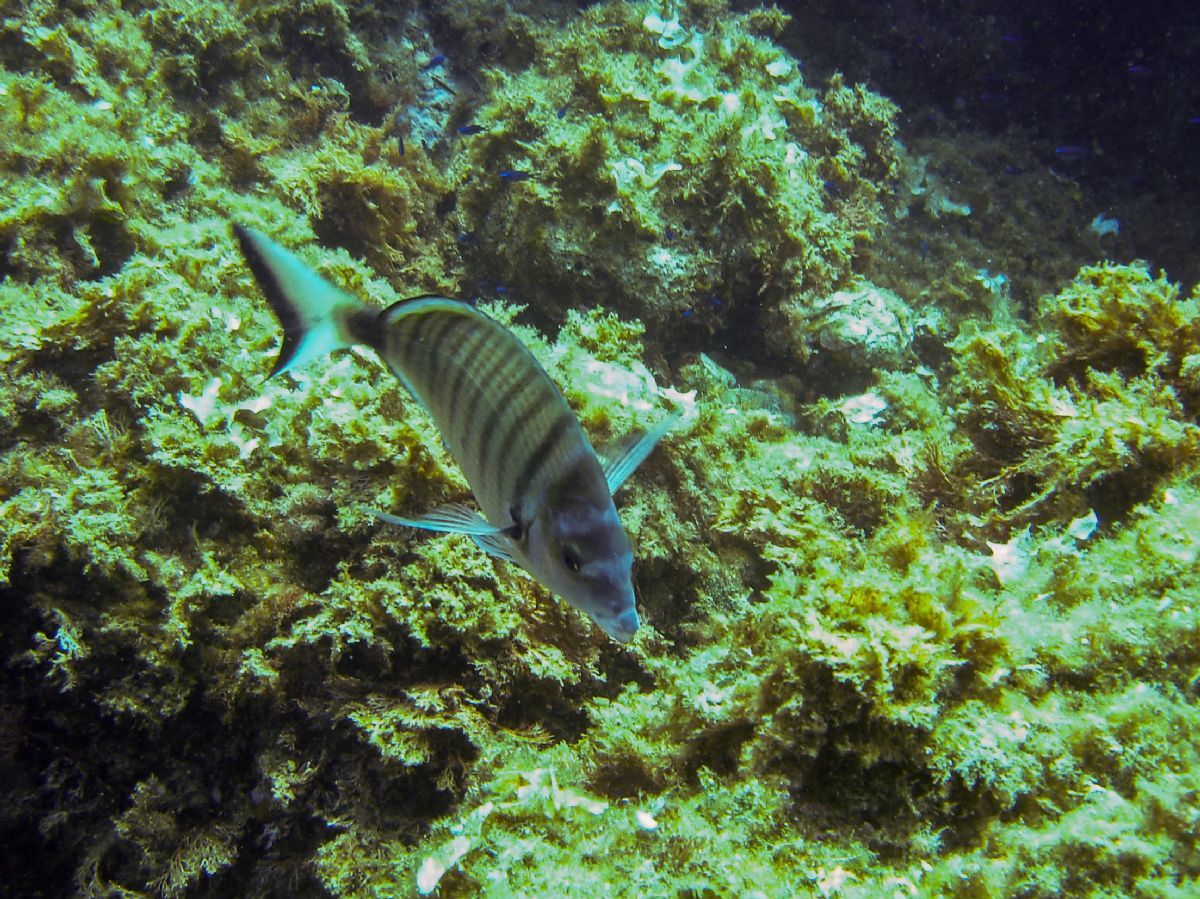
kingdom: Animalia
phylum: Chordata
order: Perciformes
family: Sparidae
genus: Diplodus
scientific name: Diplodus puntazzo
